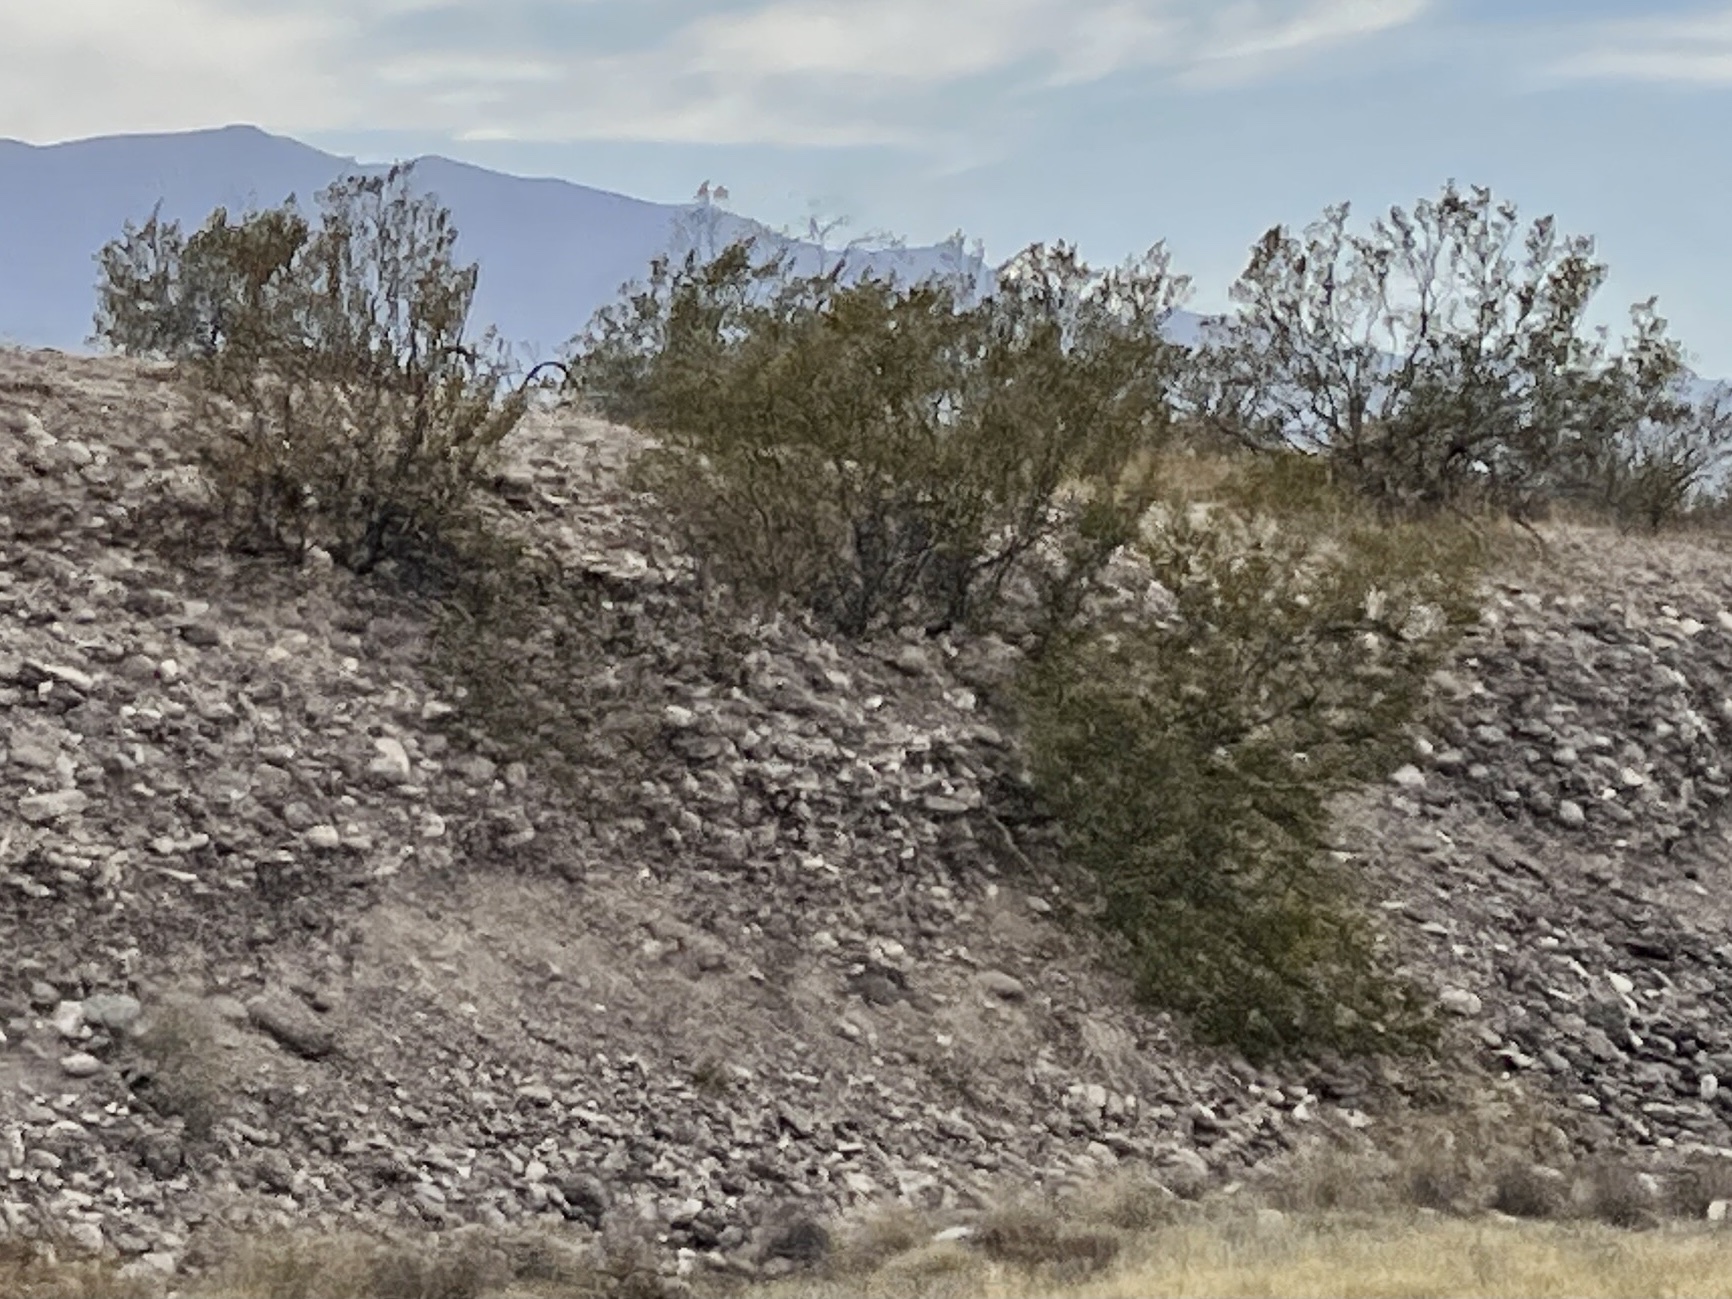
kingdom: Plantae
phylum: Tracheophyta
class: Magnoliopsida
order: Zygophyllales
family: Zygophyllaceae
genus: Larrea
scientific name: Larrea tridentata
